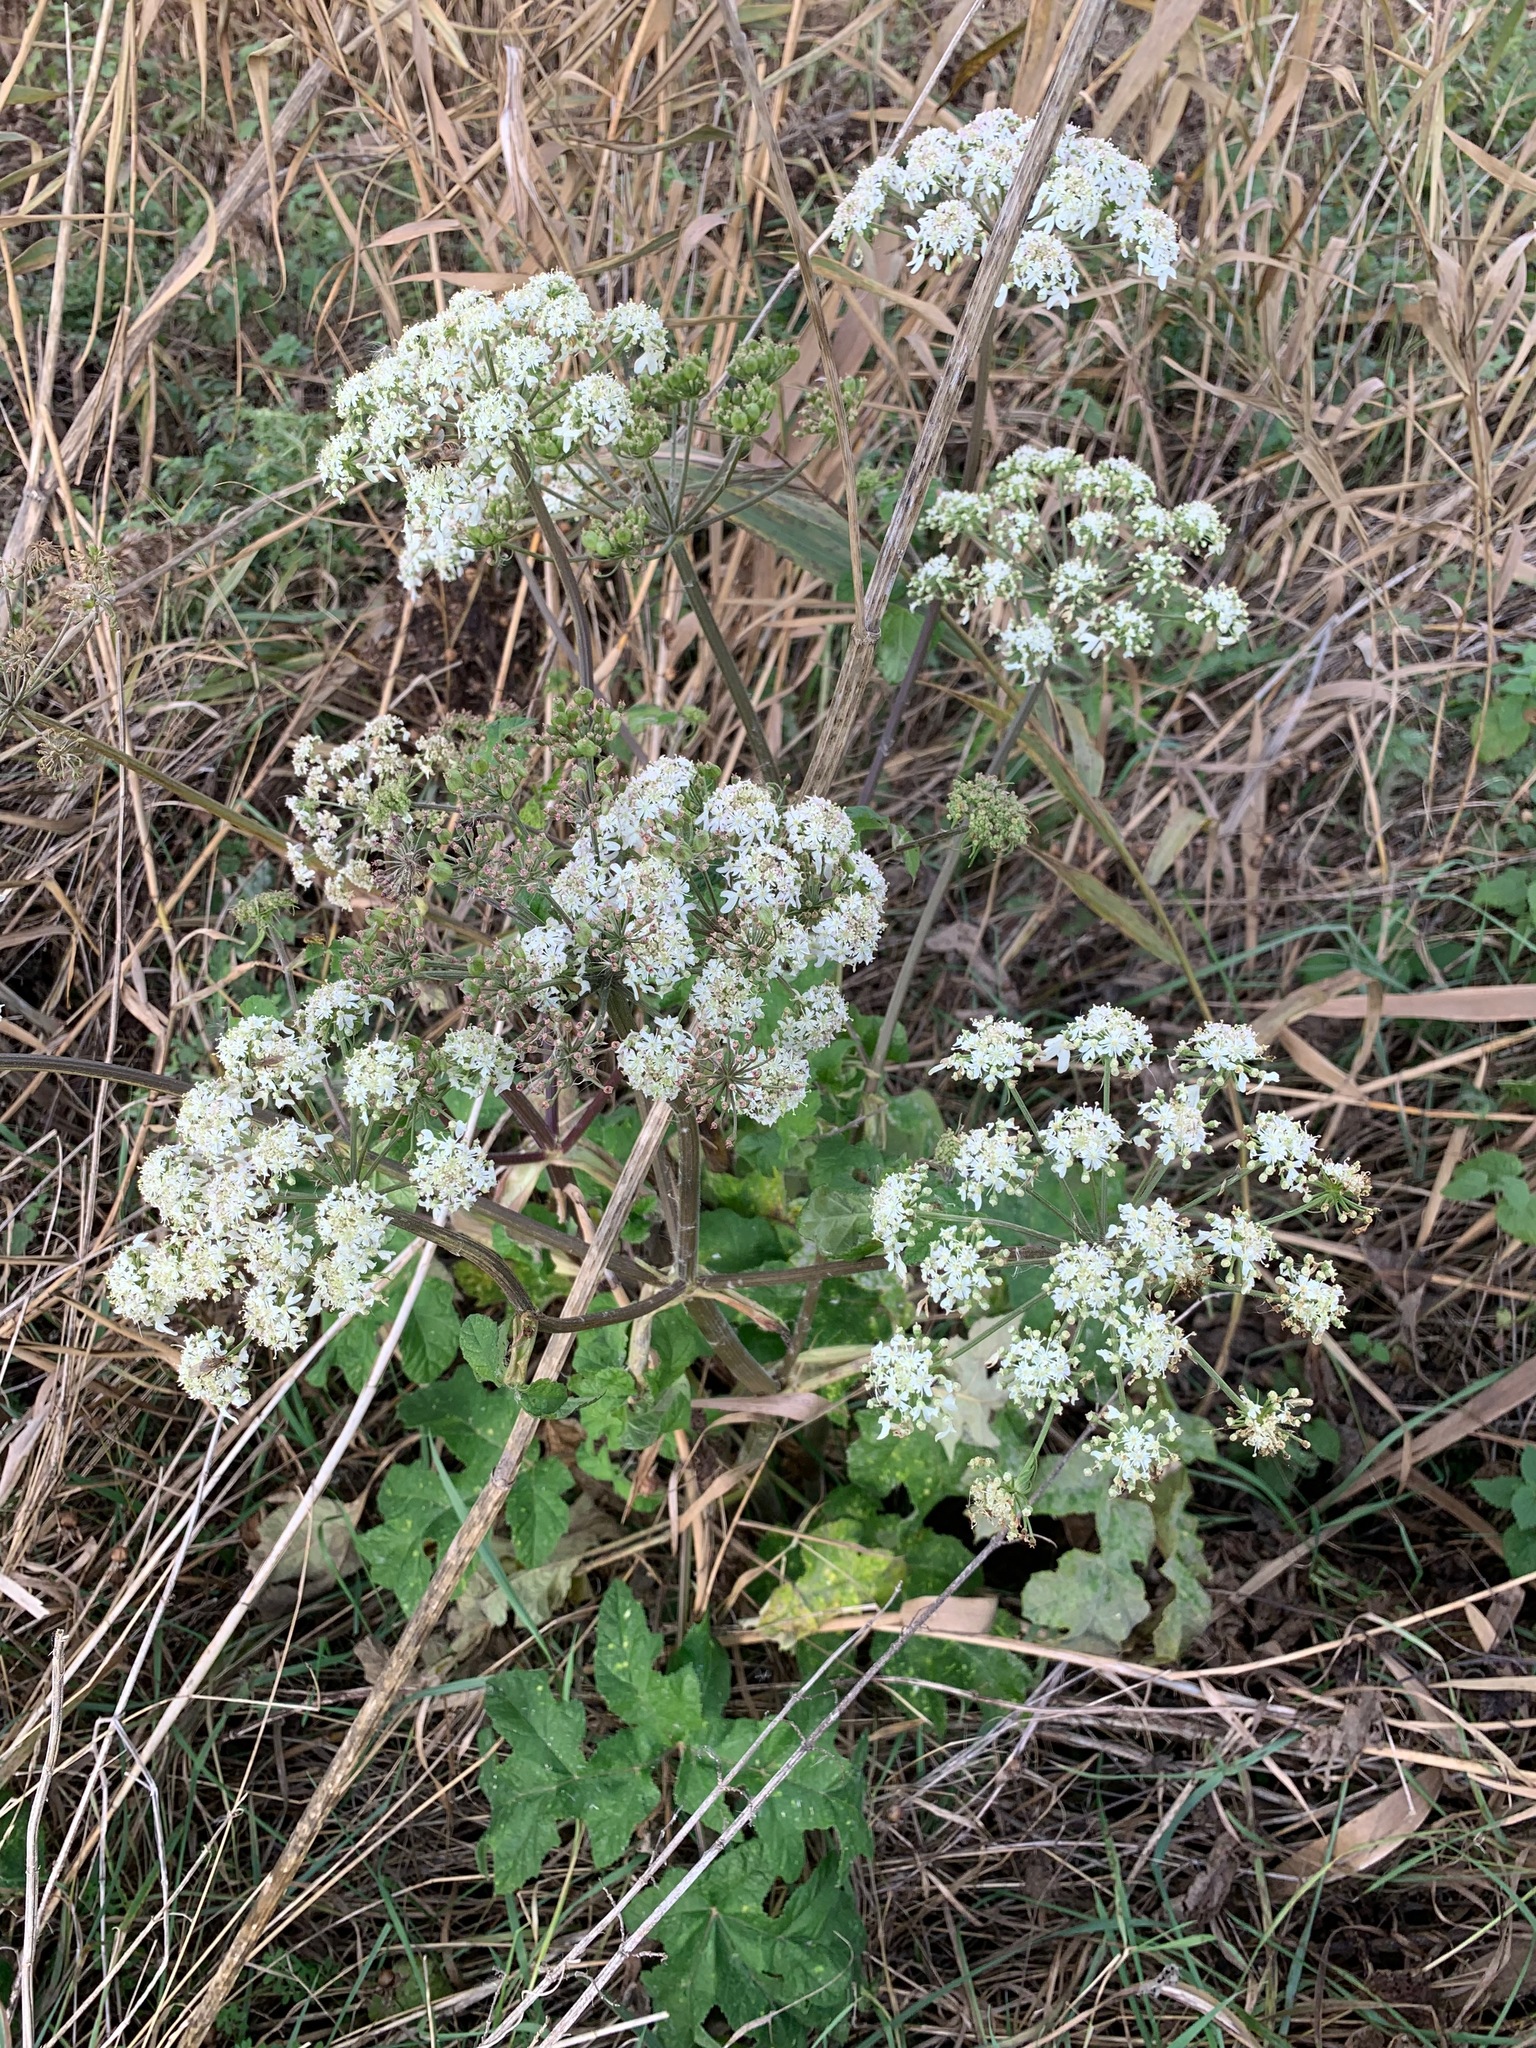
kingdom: Plantae
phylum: Tracheophyta
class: Magnoliopsida
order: Apiales
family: Apiaceae
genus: Heracleum
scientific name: Heracleum sphondylium
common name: Hogweed
